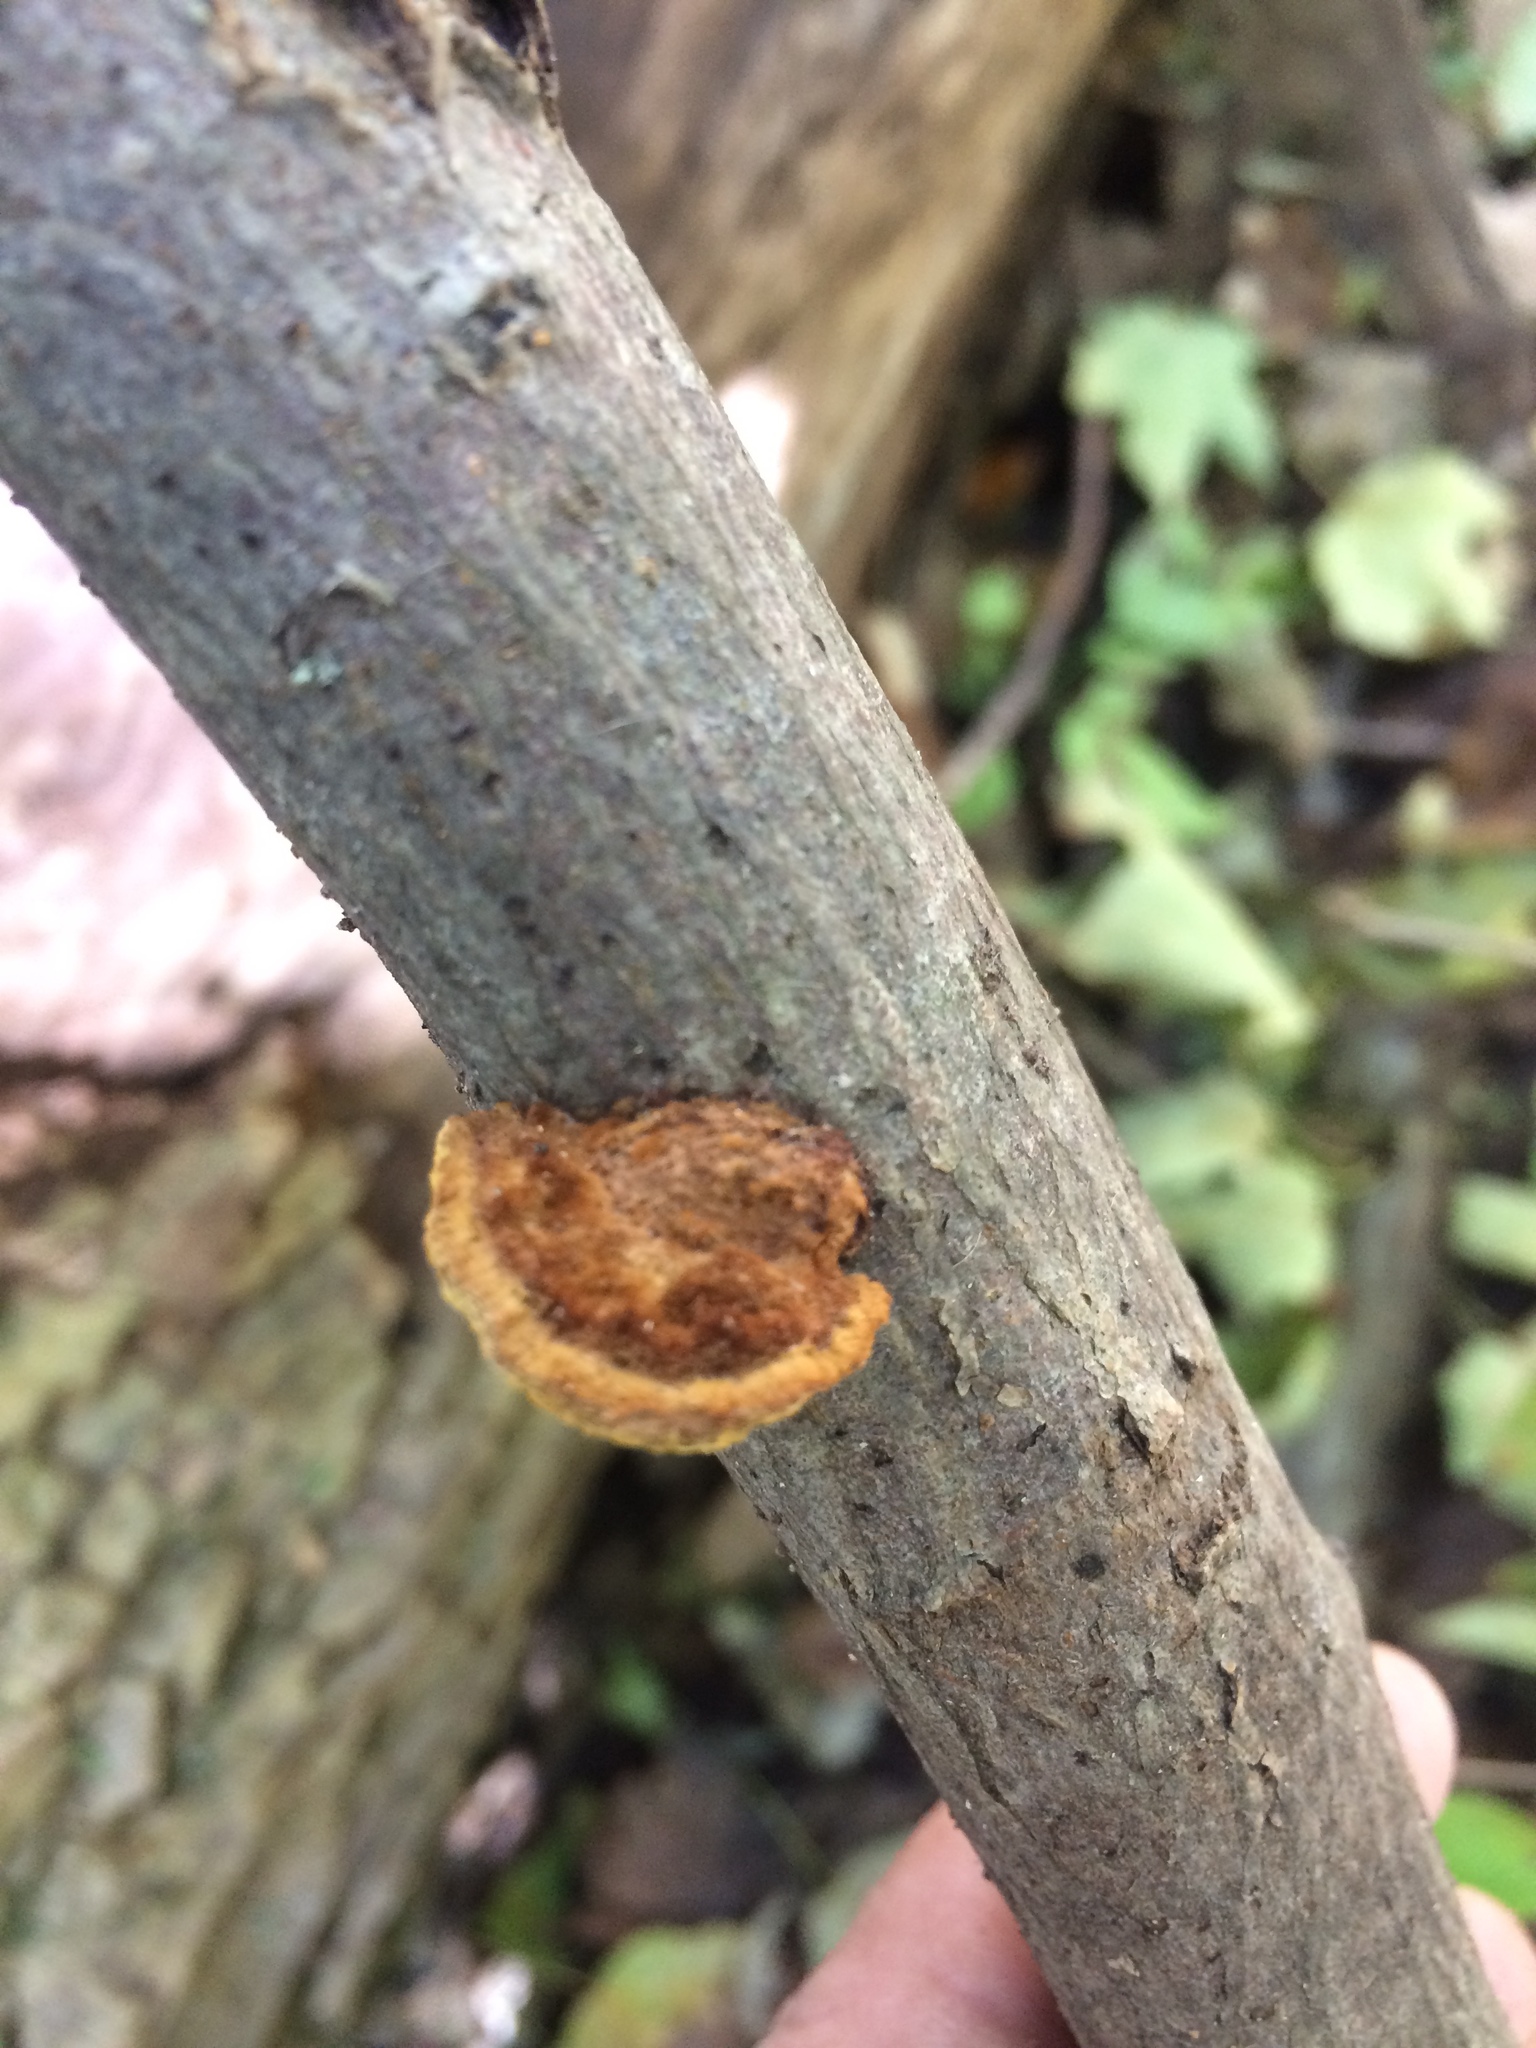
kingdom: Fungi
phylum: Basidiomycota
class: Agaricomycetes
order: Hymenochaetales
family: Hymenochaetaceae
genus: Phellinus
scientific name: Phellinus gilvus
